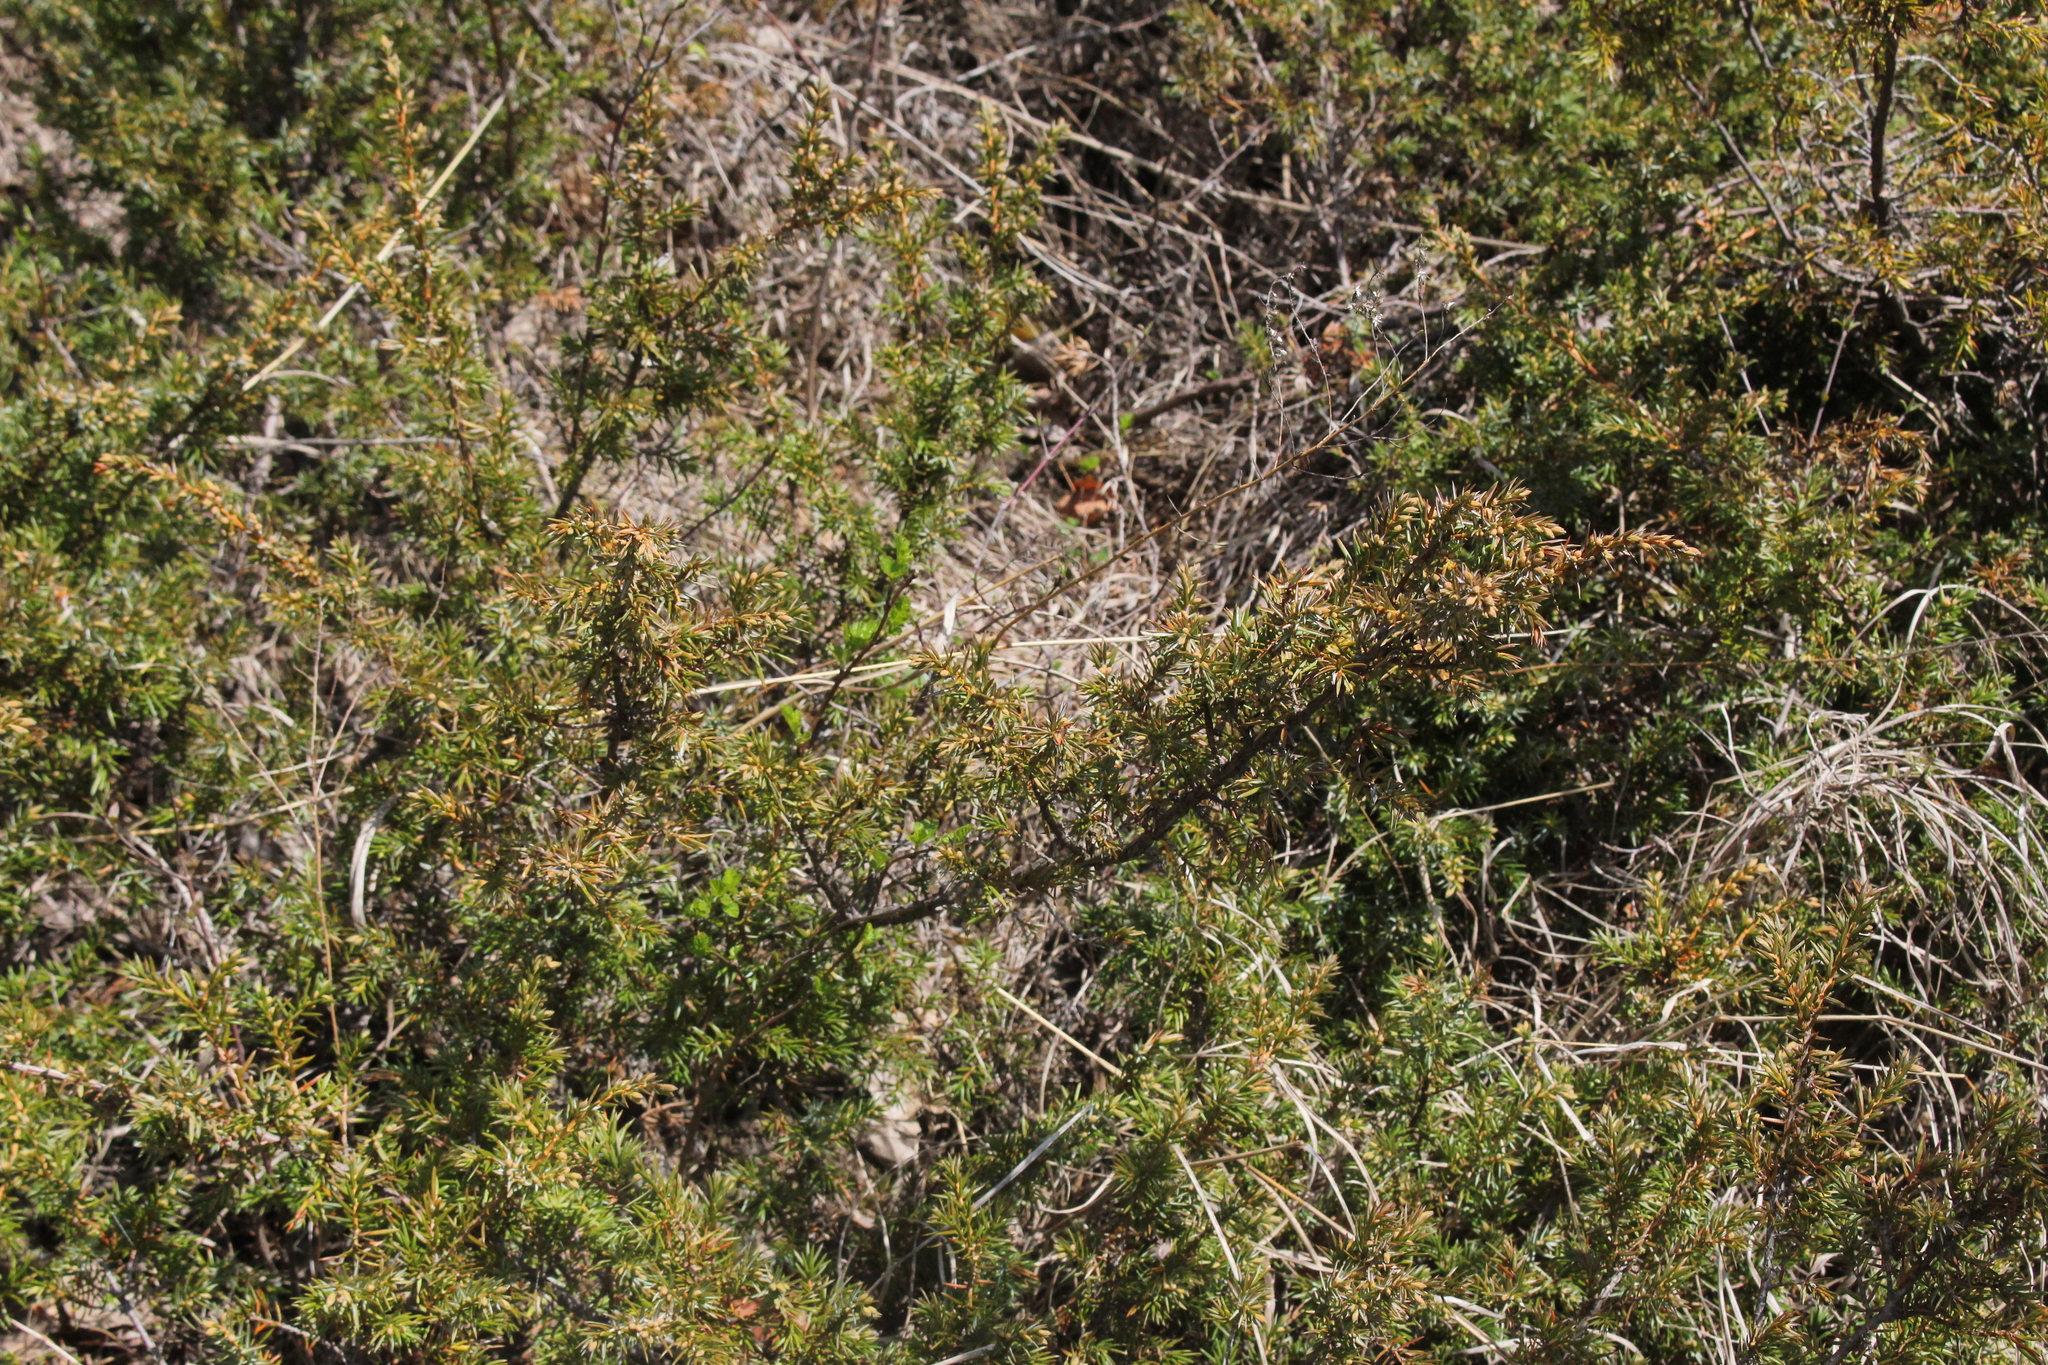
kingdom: Plantae
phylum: Tracheophyta
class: Pinopsida
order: Pinales
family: Cupressaceae
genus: Juniperus
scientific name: Juniperus communis
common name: Common juniper
